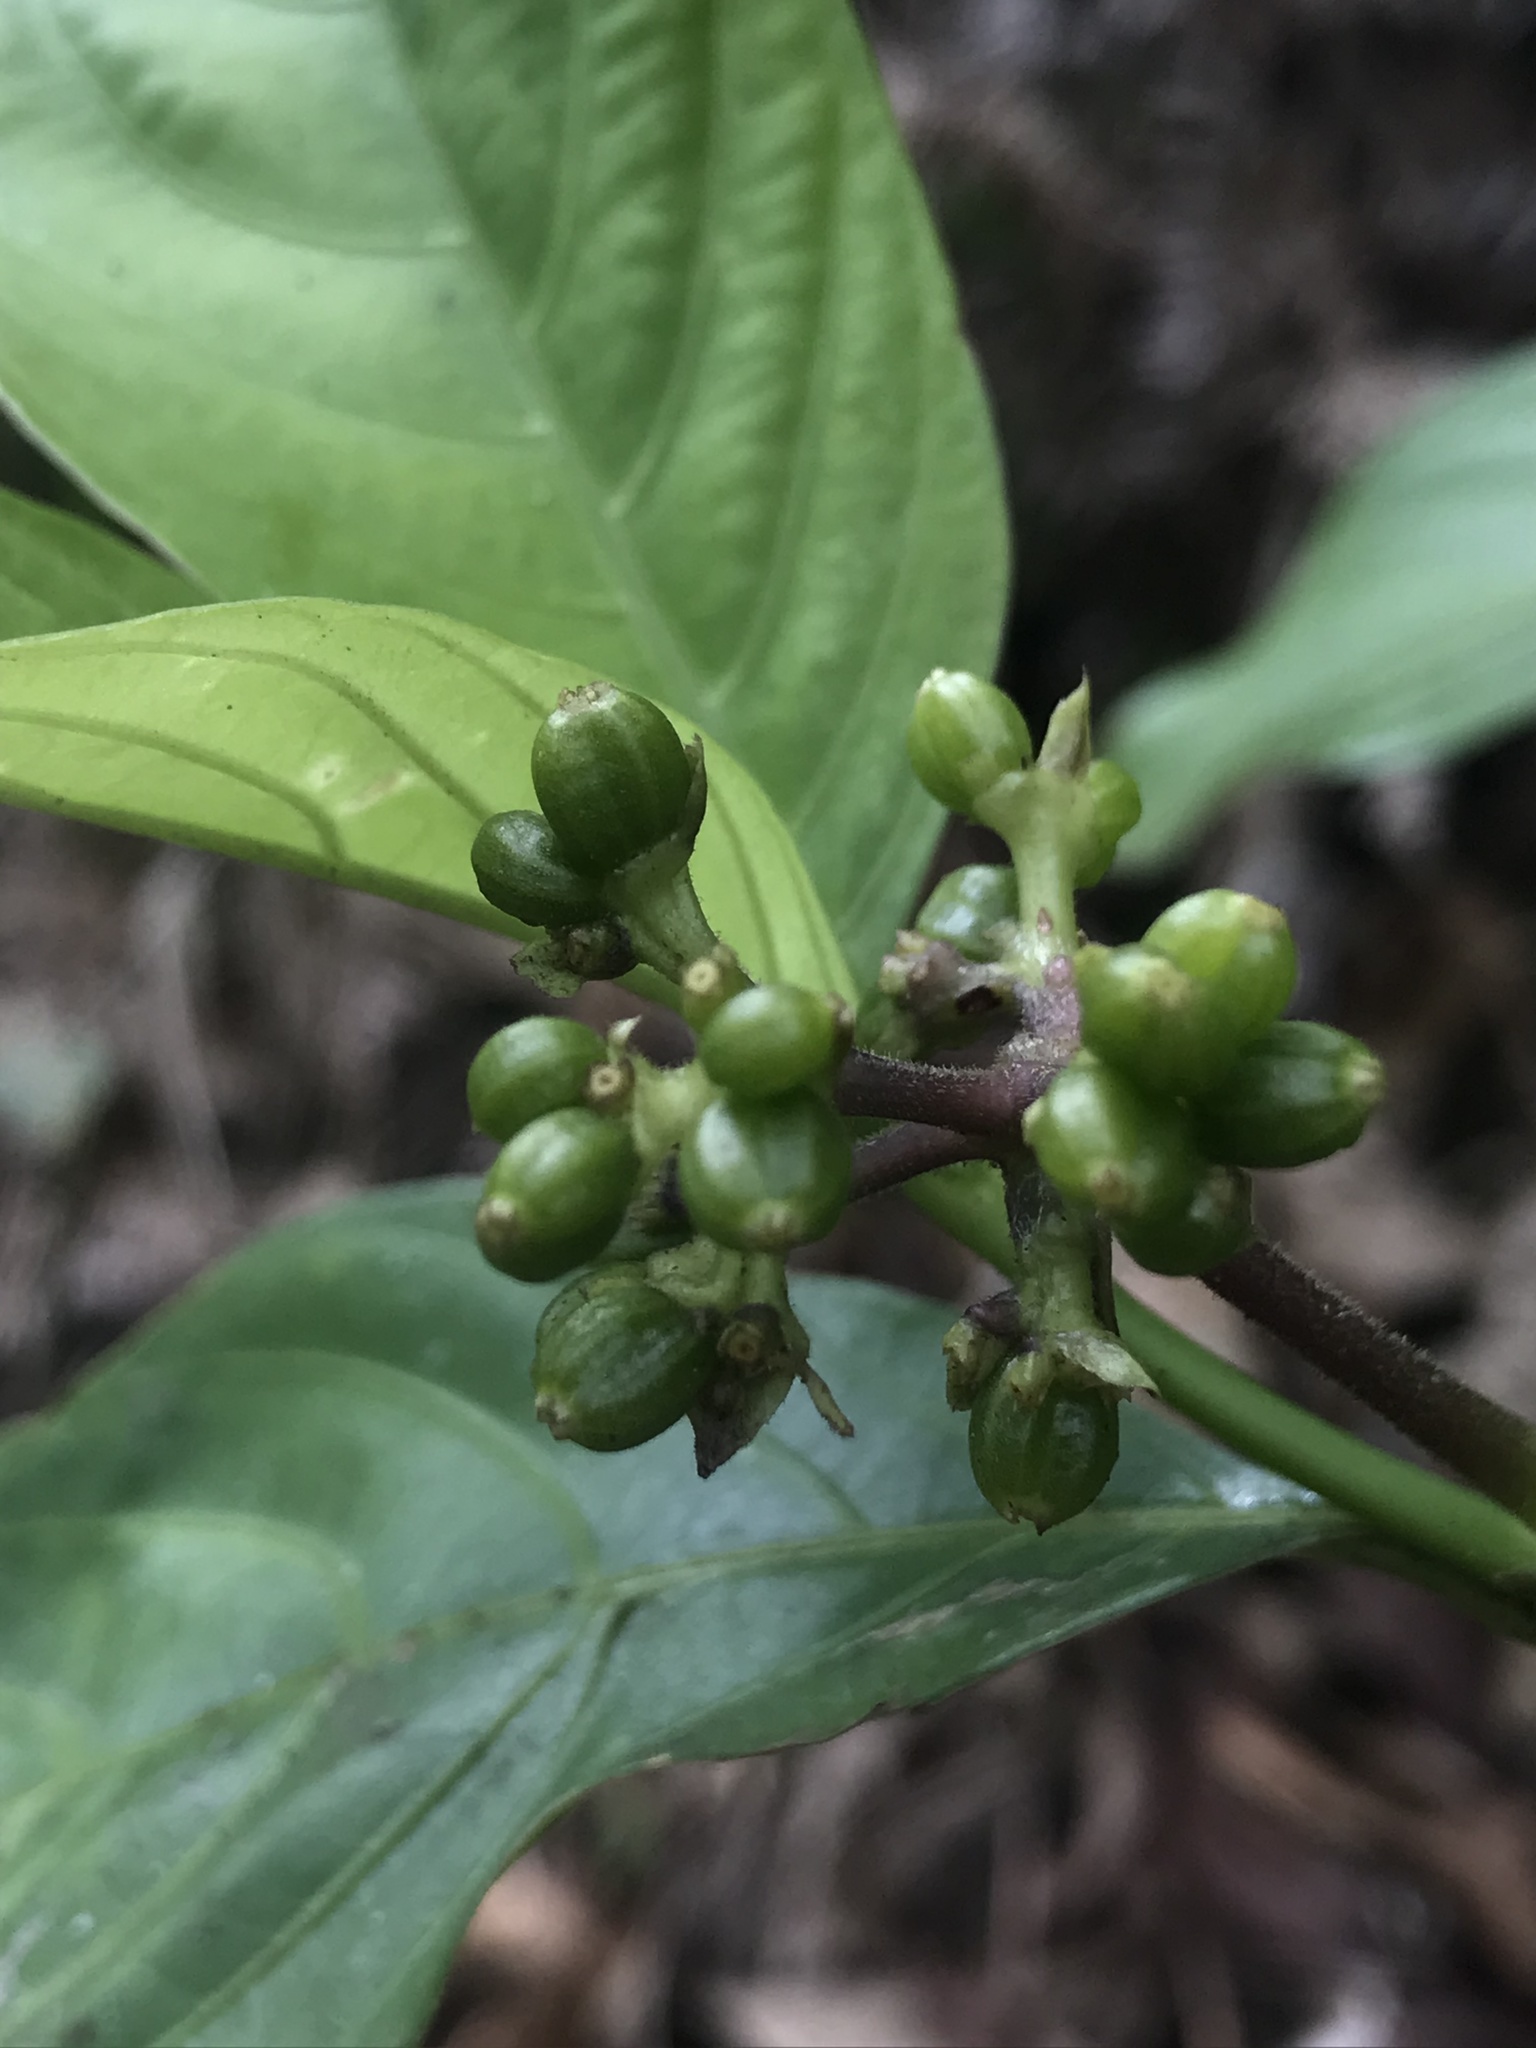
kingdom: Plantae
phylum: Tracheophyta
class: Magnoliopsida
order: Gentianales
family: Rubiaceae
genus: Palicourea
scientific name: Palicourea gracilenta
